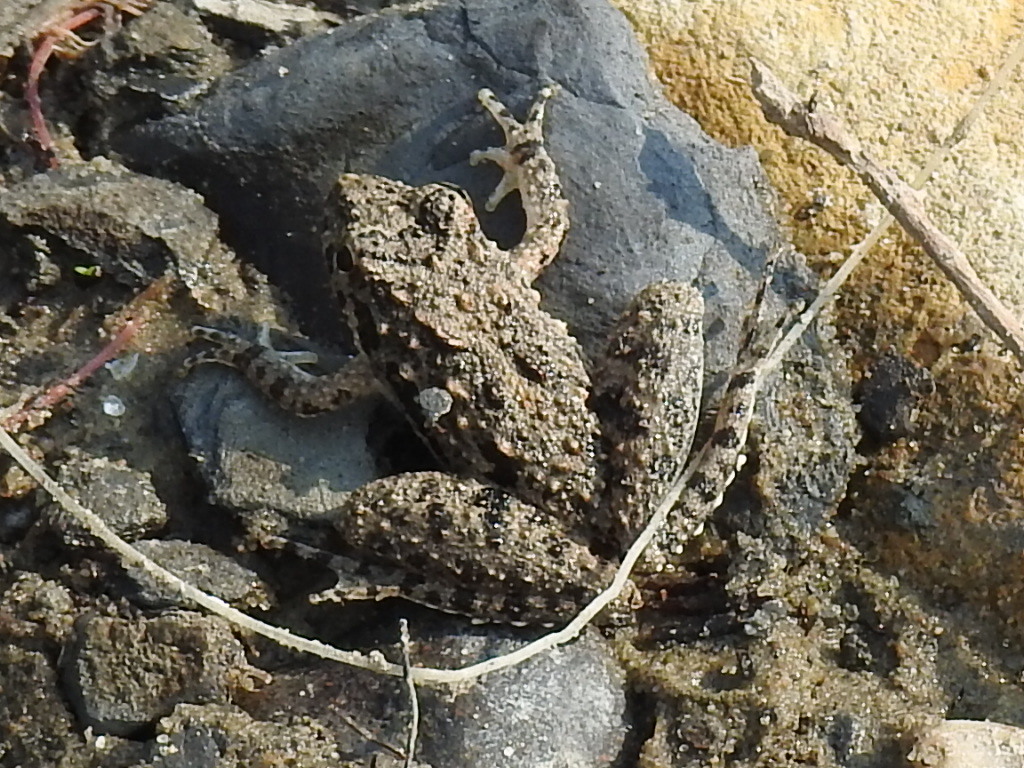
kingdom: Animalia
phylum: Chordata
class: Amphibia
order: Anura
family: Hylidae
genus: Acris
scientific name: Acris blanchardi
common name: Blanchard's cricket frog
